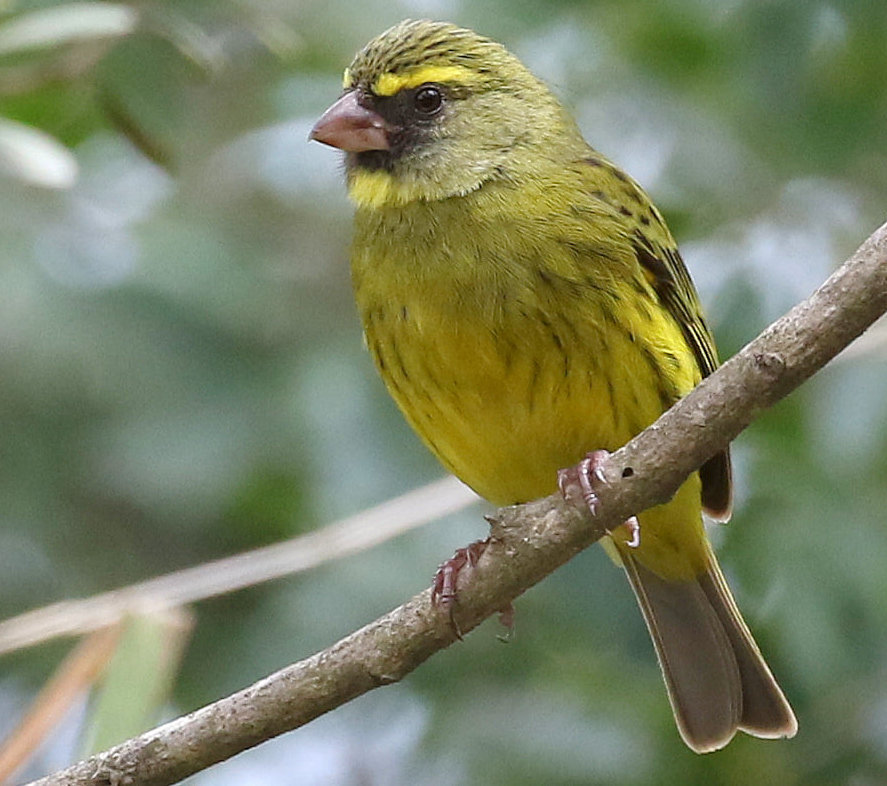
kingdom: Animalia
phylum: Chordata
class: Aves
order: Passeriformes
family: Fringillidae
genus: Crithagra
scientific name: Crithagra scotops
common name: Forest canary
